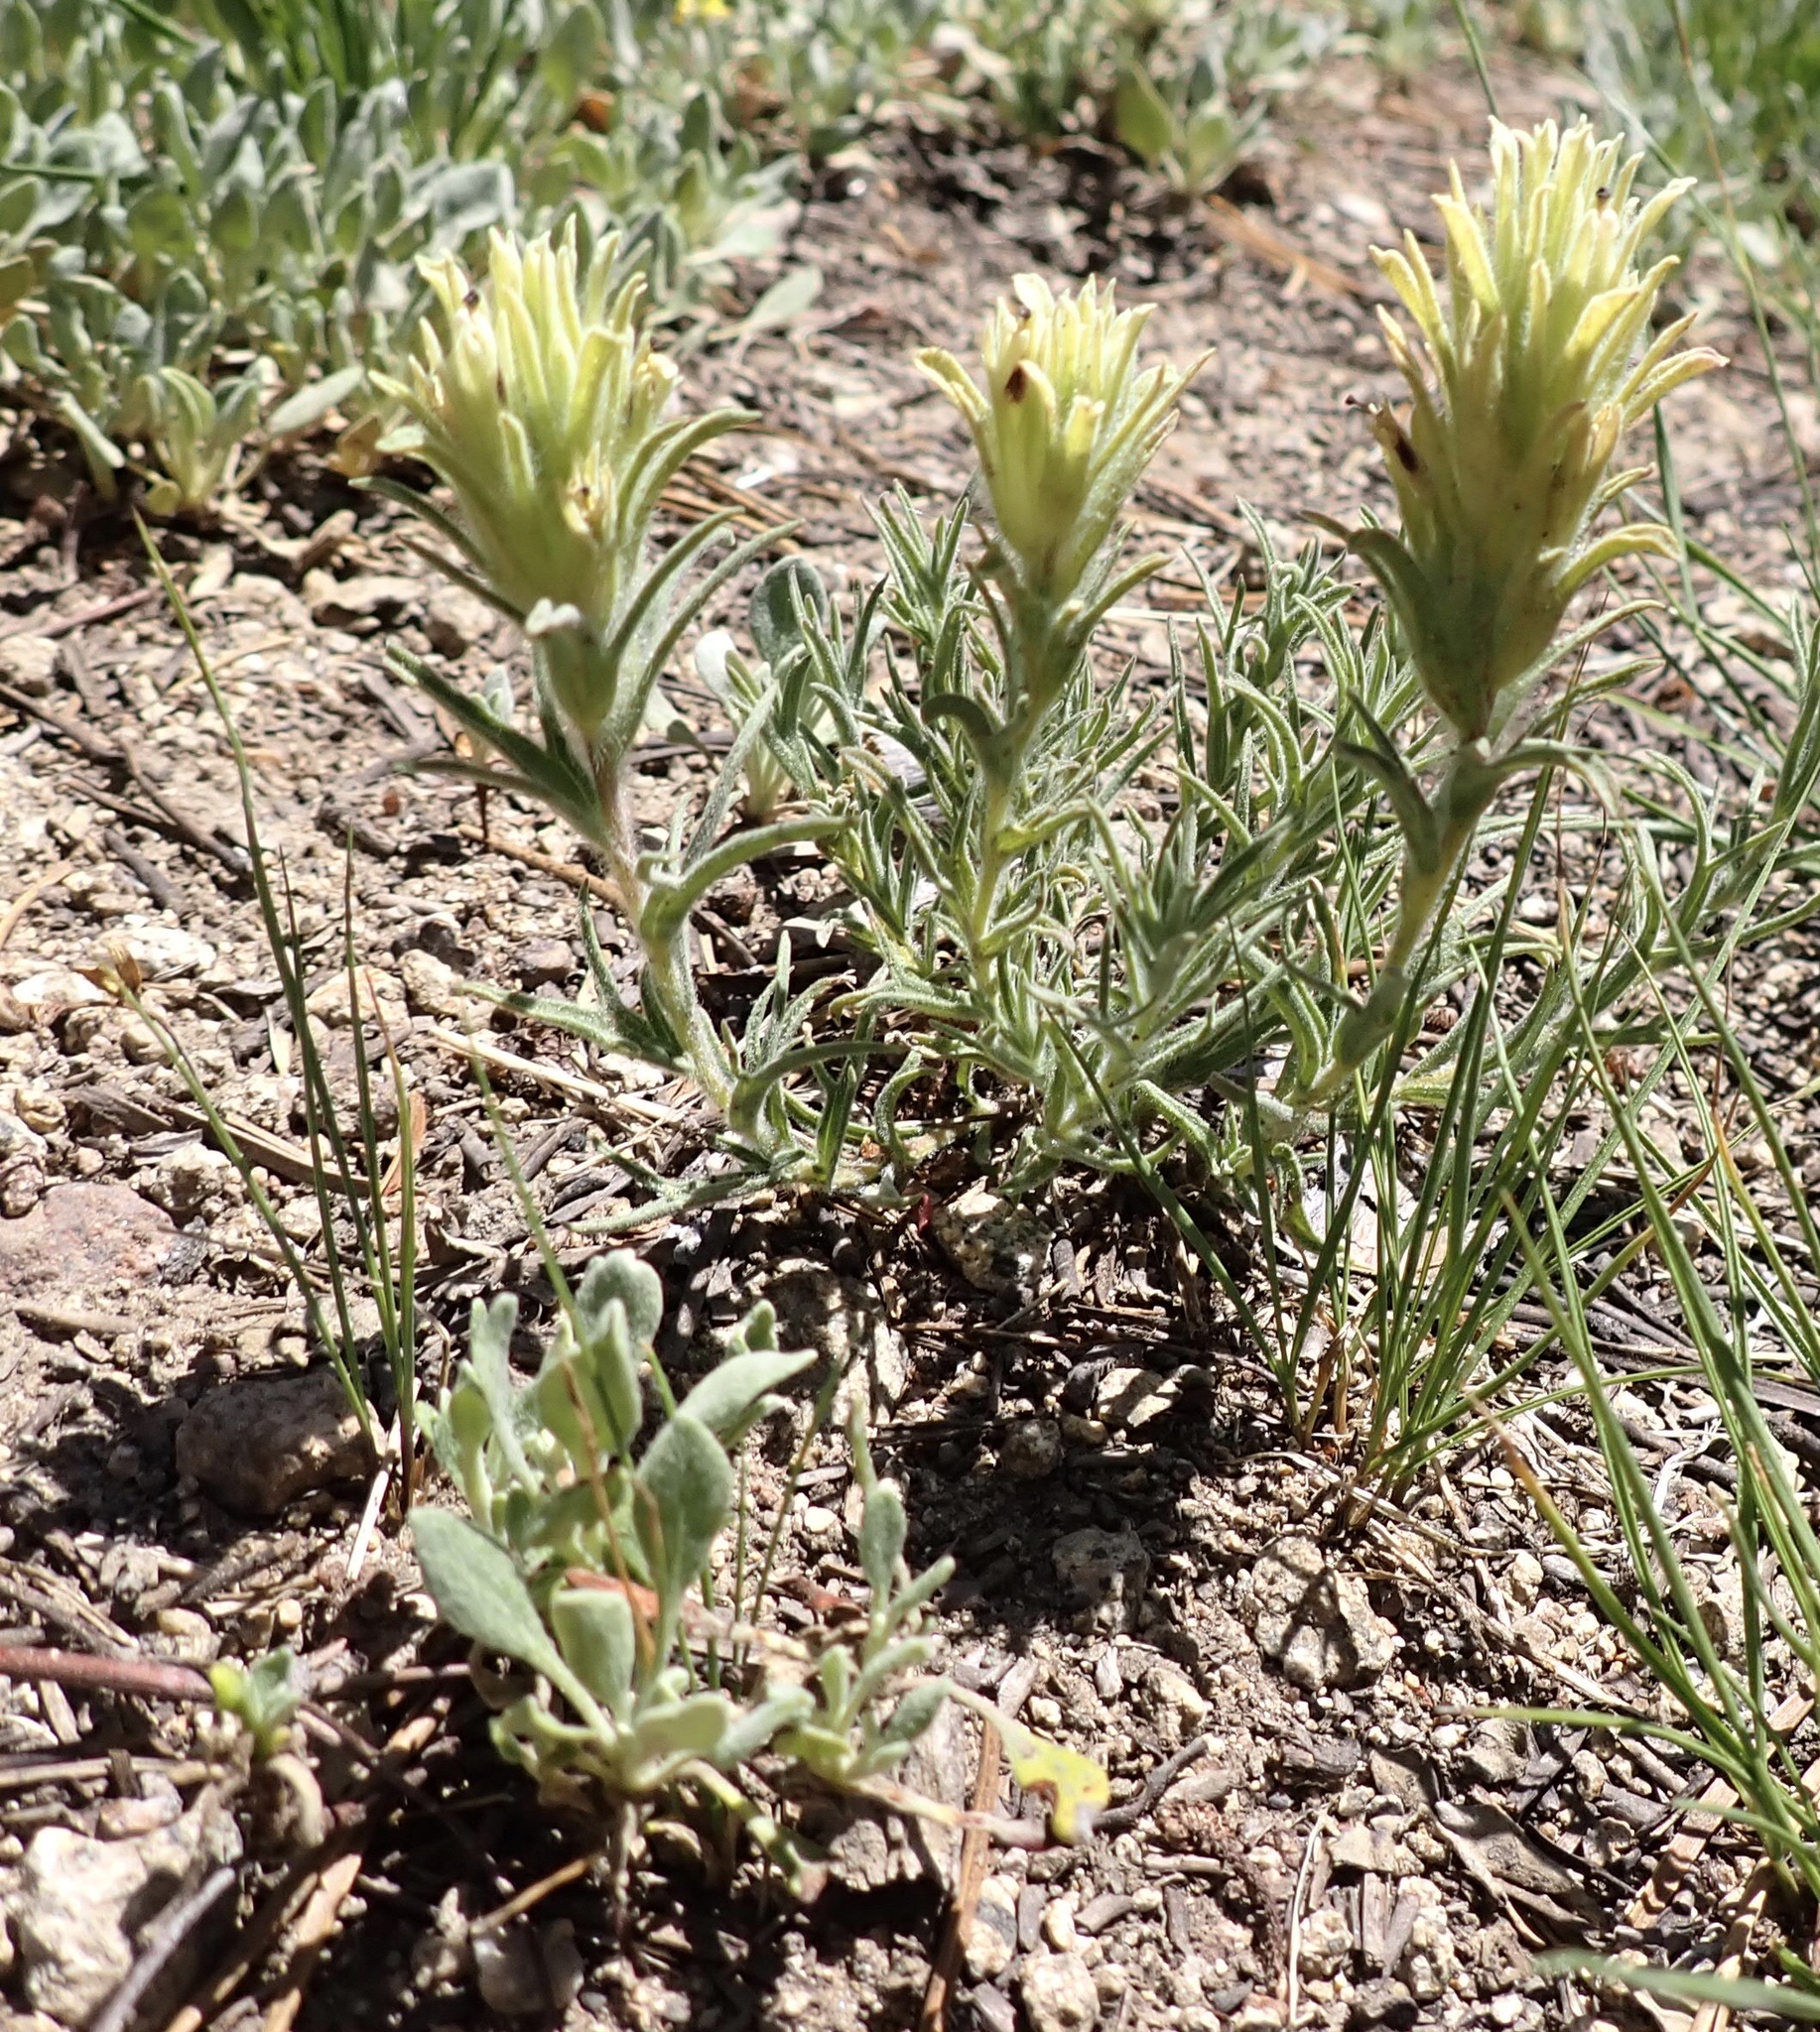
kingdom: Plantae
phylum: Tracheophyta
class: Magnoliopsida
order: Lamiales
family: Orobanchaceae
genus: Castilleja
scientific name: Castilleja nana
